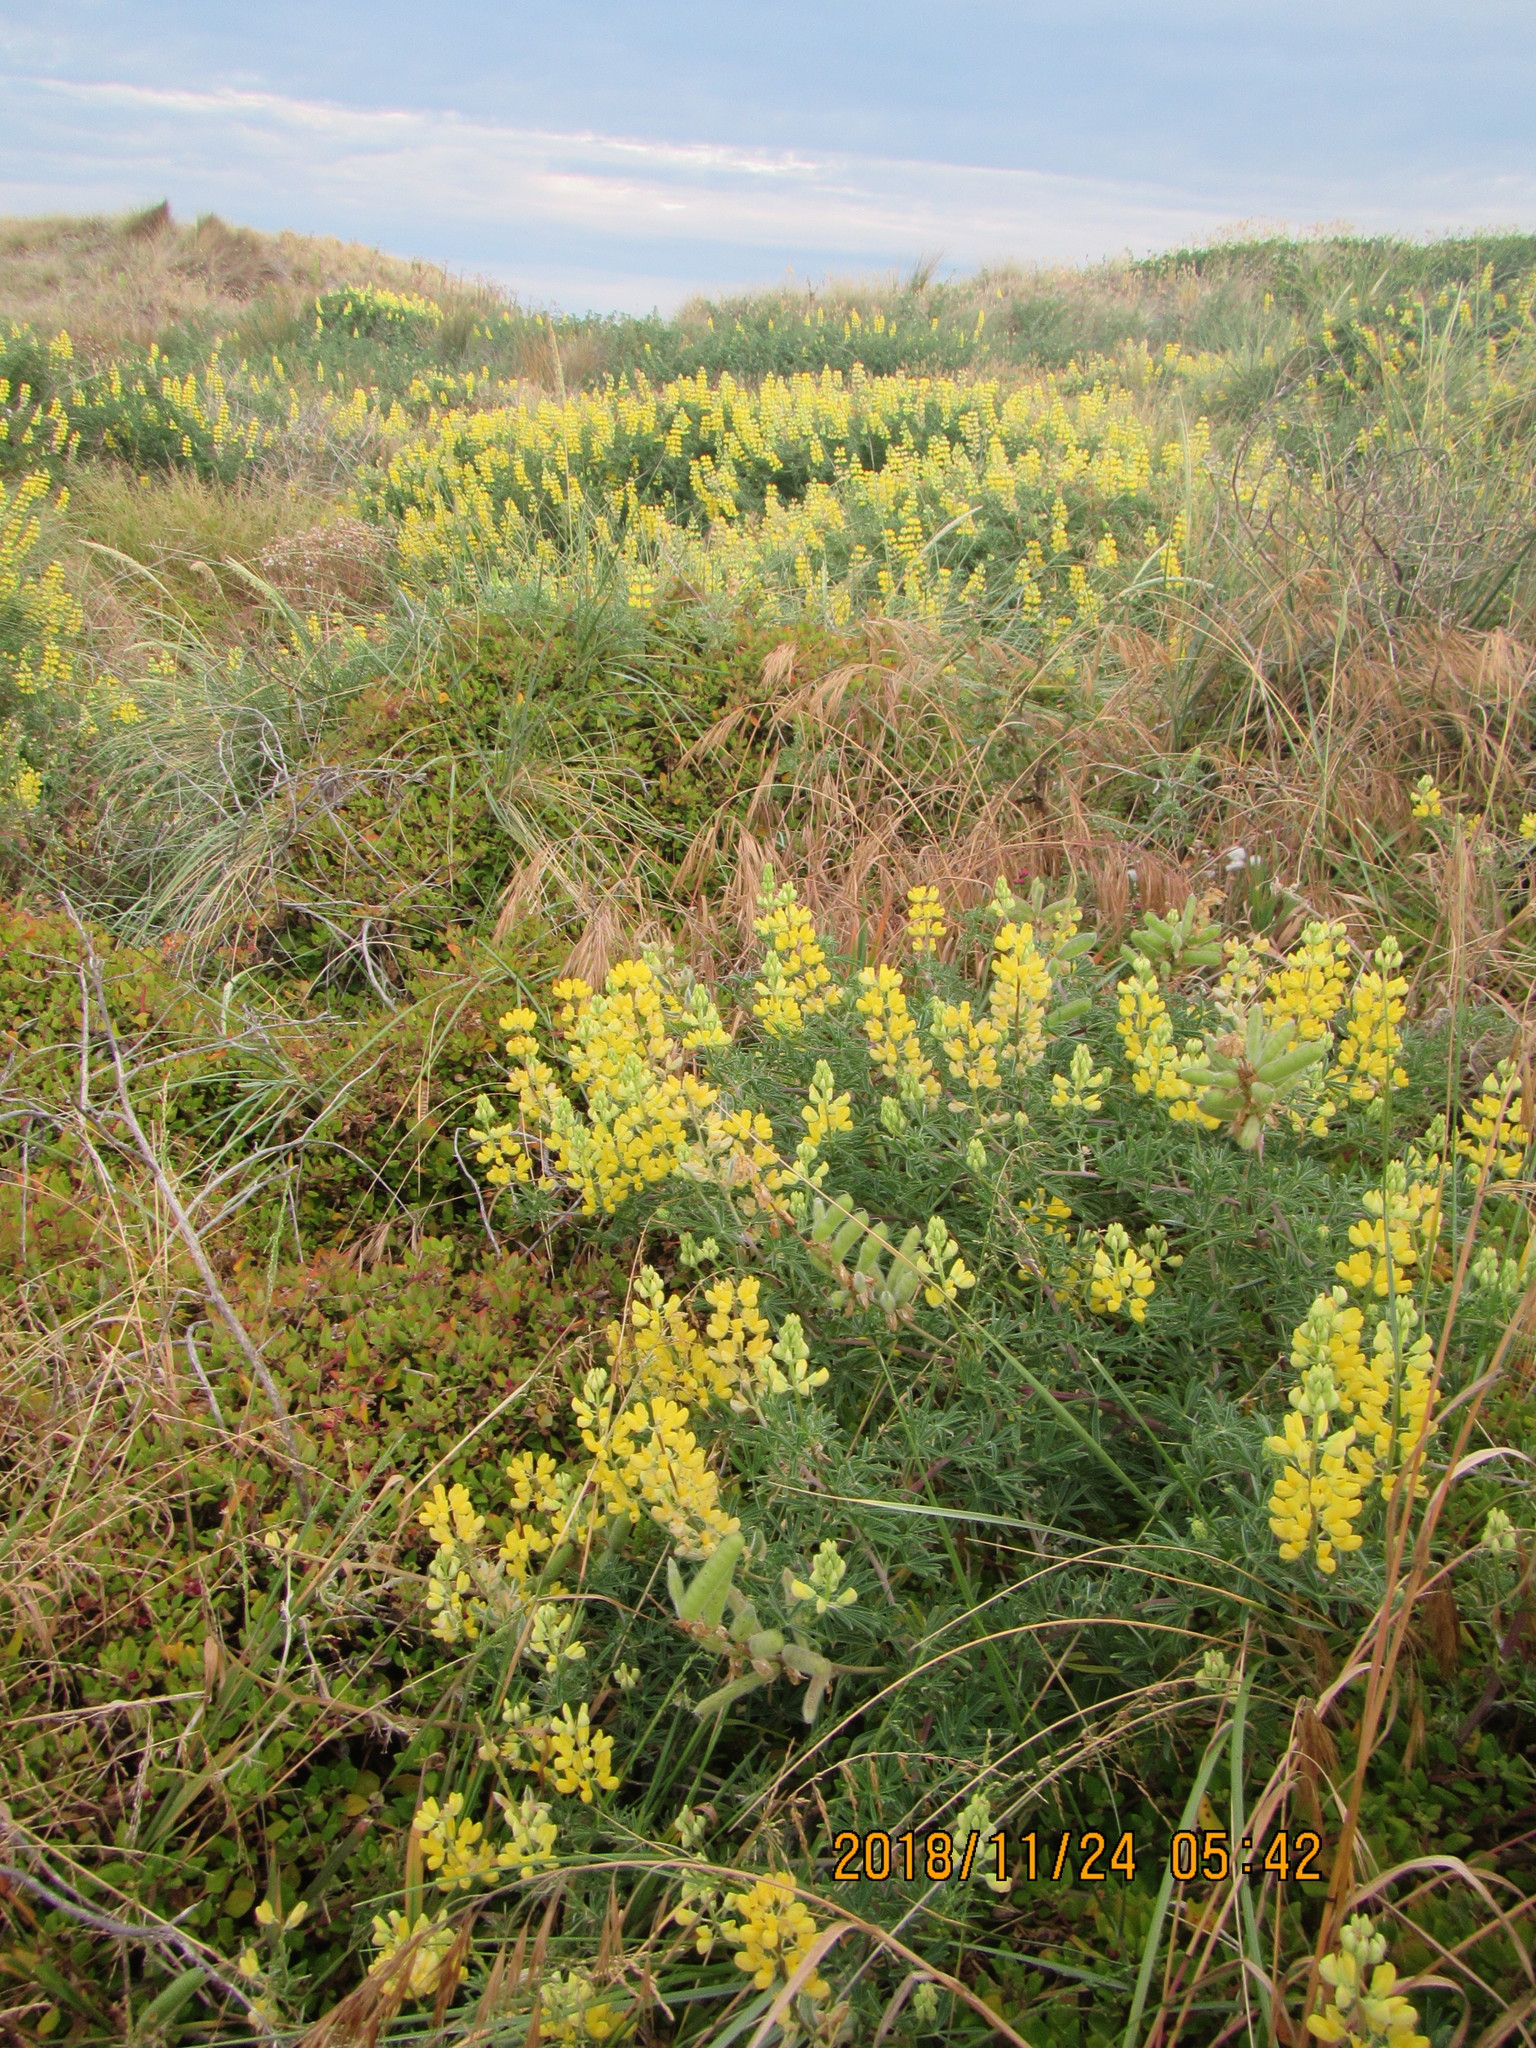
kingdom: Plantae
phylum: Tracheophyta
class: Magnoliopsida
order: Fabales
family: Fabaceae
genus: Lupinus
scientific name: Lupinus arboreus
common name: Yellow bush lupine
